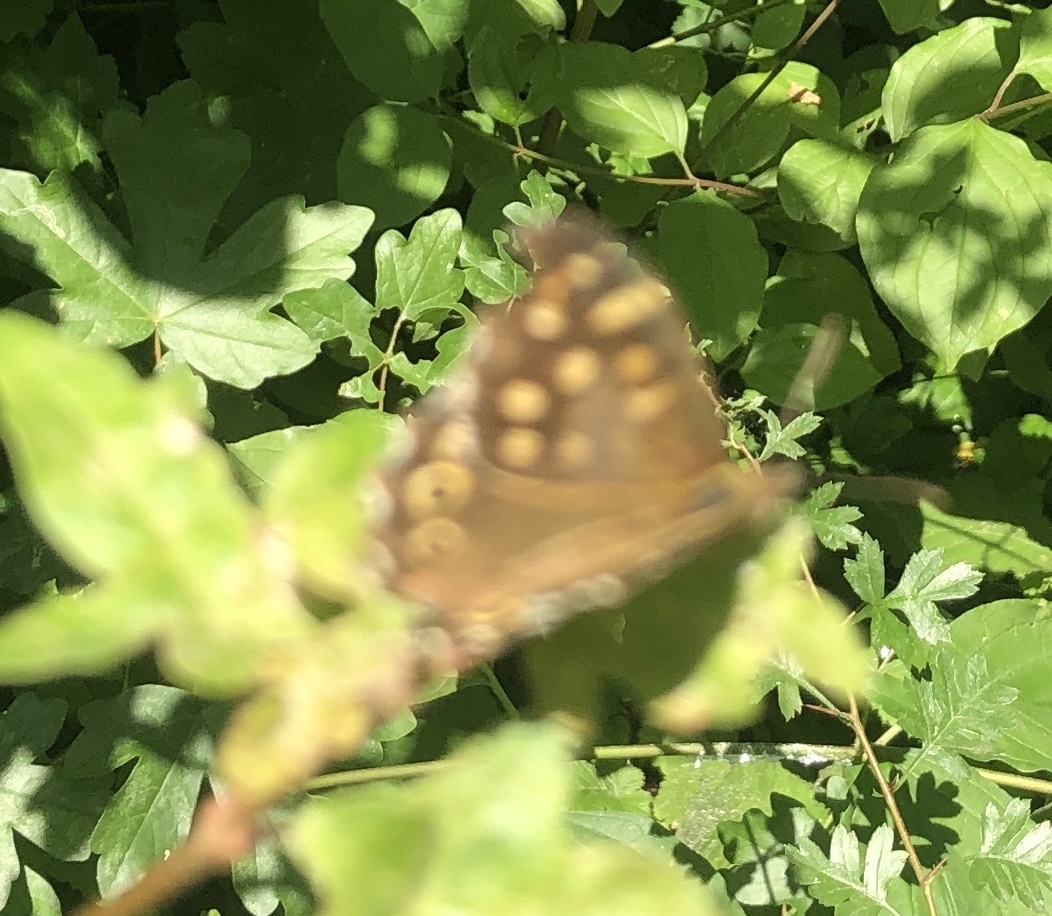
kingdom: Animalia
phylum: Arthropoda
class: Insecta
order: Lepidoptera
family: Nymphalidae
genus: Pararge
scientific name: Pararge aegeria
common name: Speckled wood
